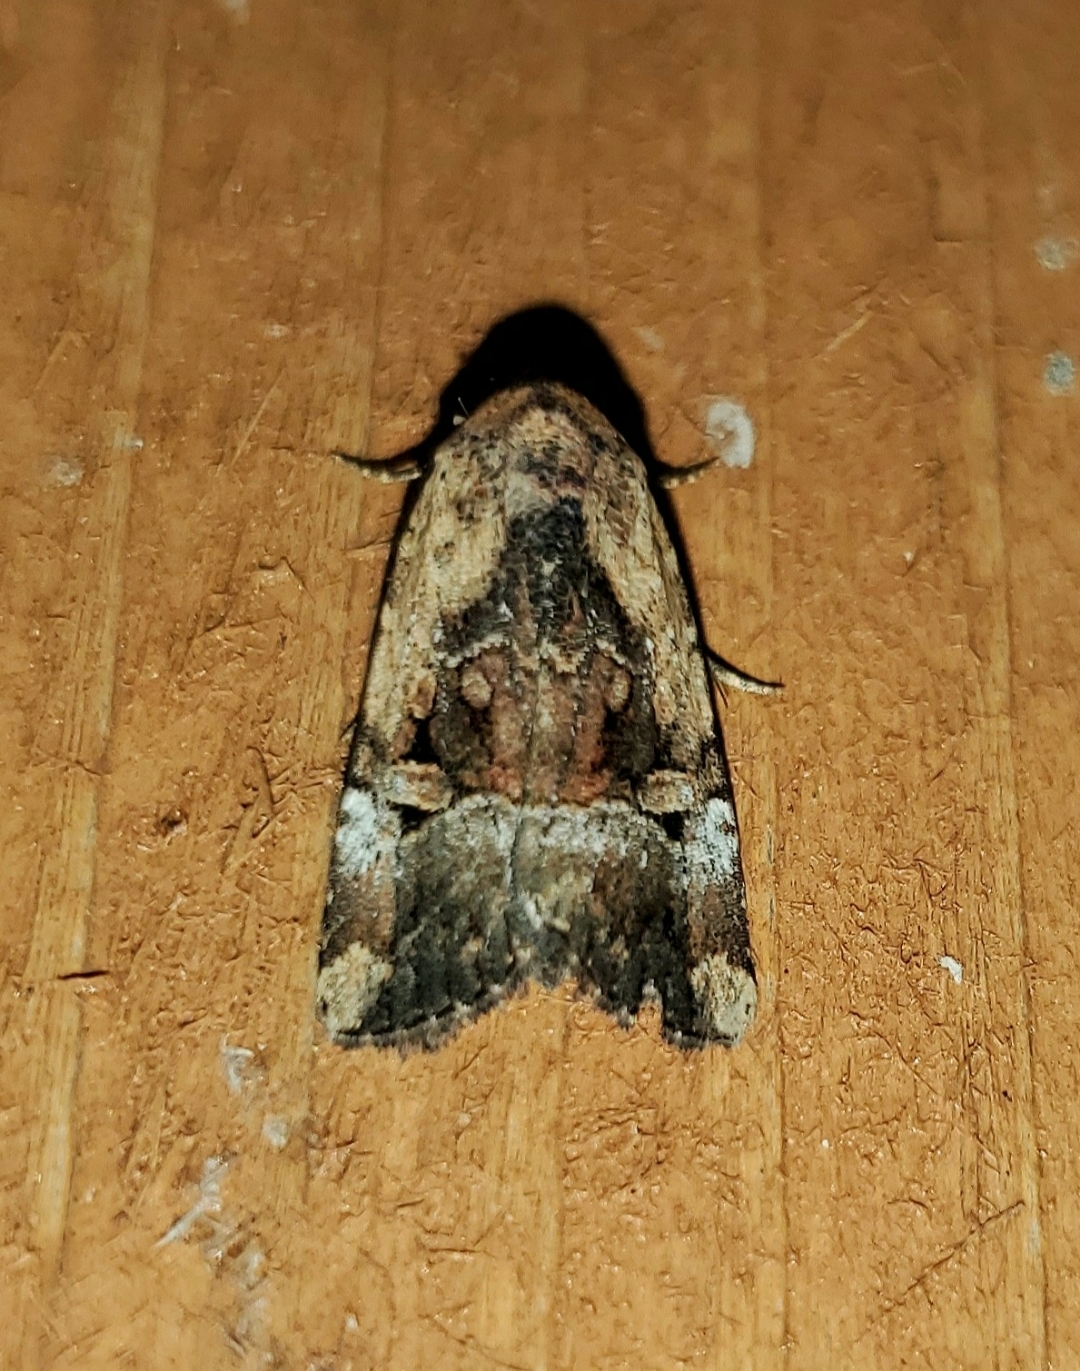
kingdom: Animalia
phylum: Arthropoda
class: Insecta
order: Lepidoptera
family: Noctuidae
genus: Elaphria
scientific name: Elaphria chalcedonia
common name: Chalcedony midget
